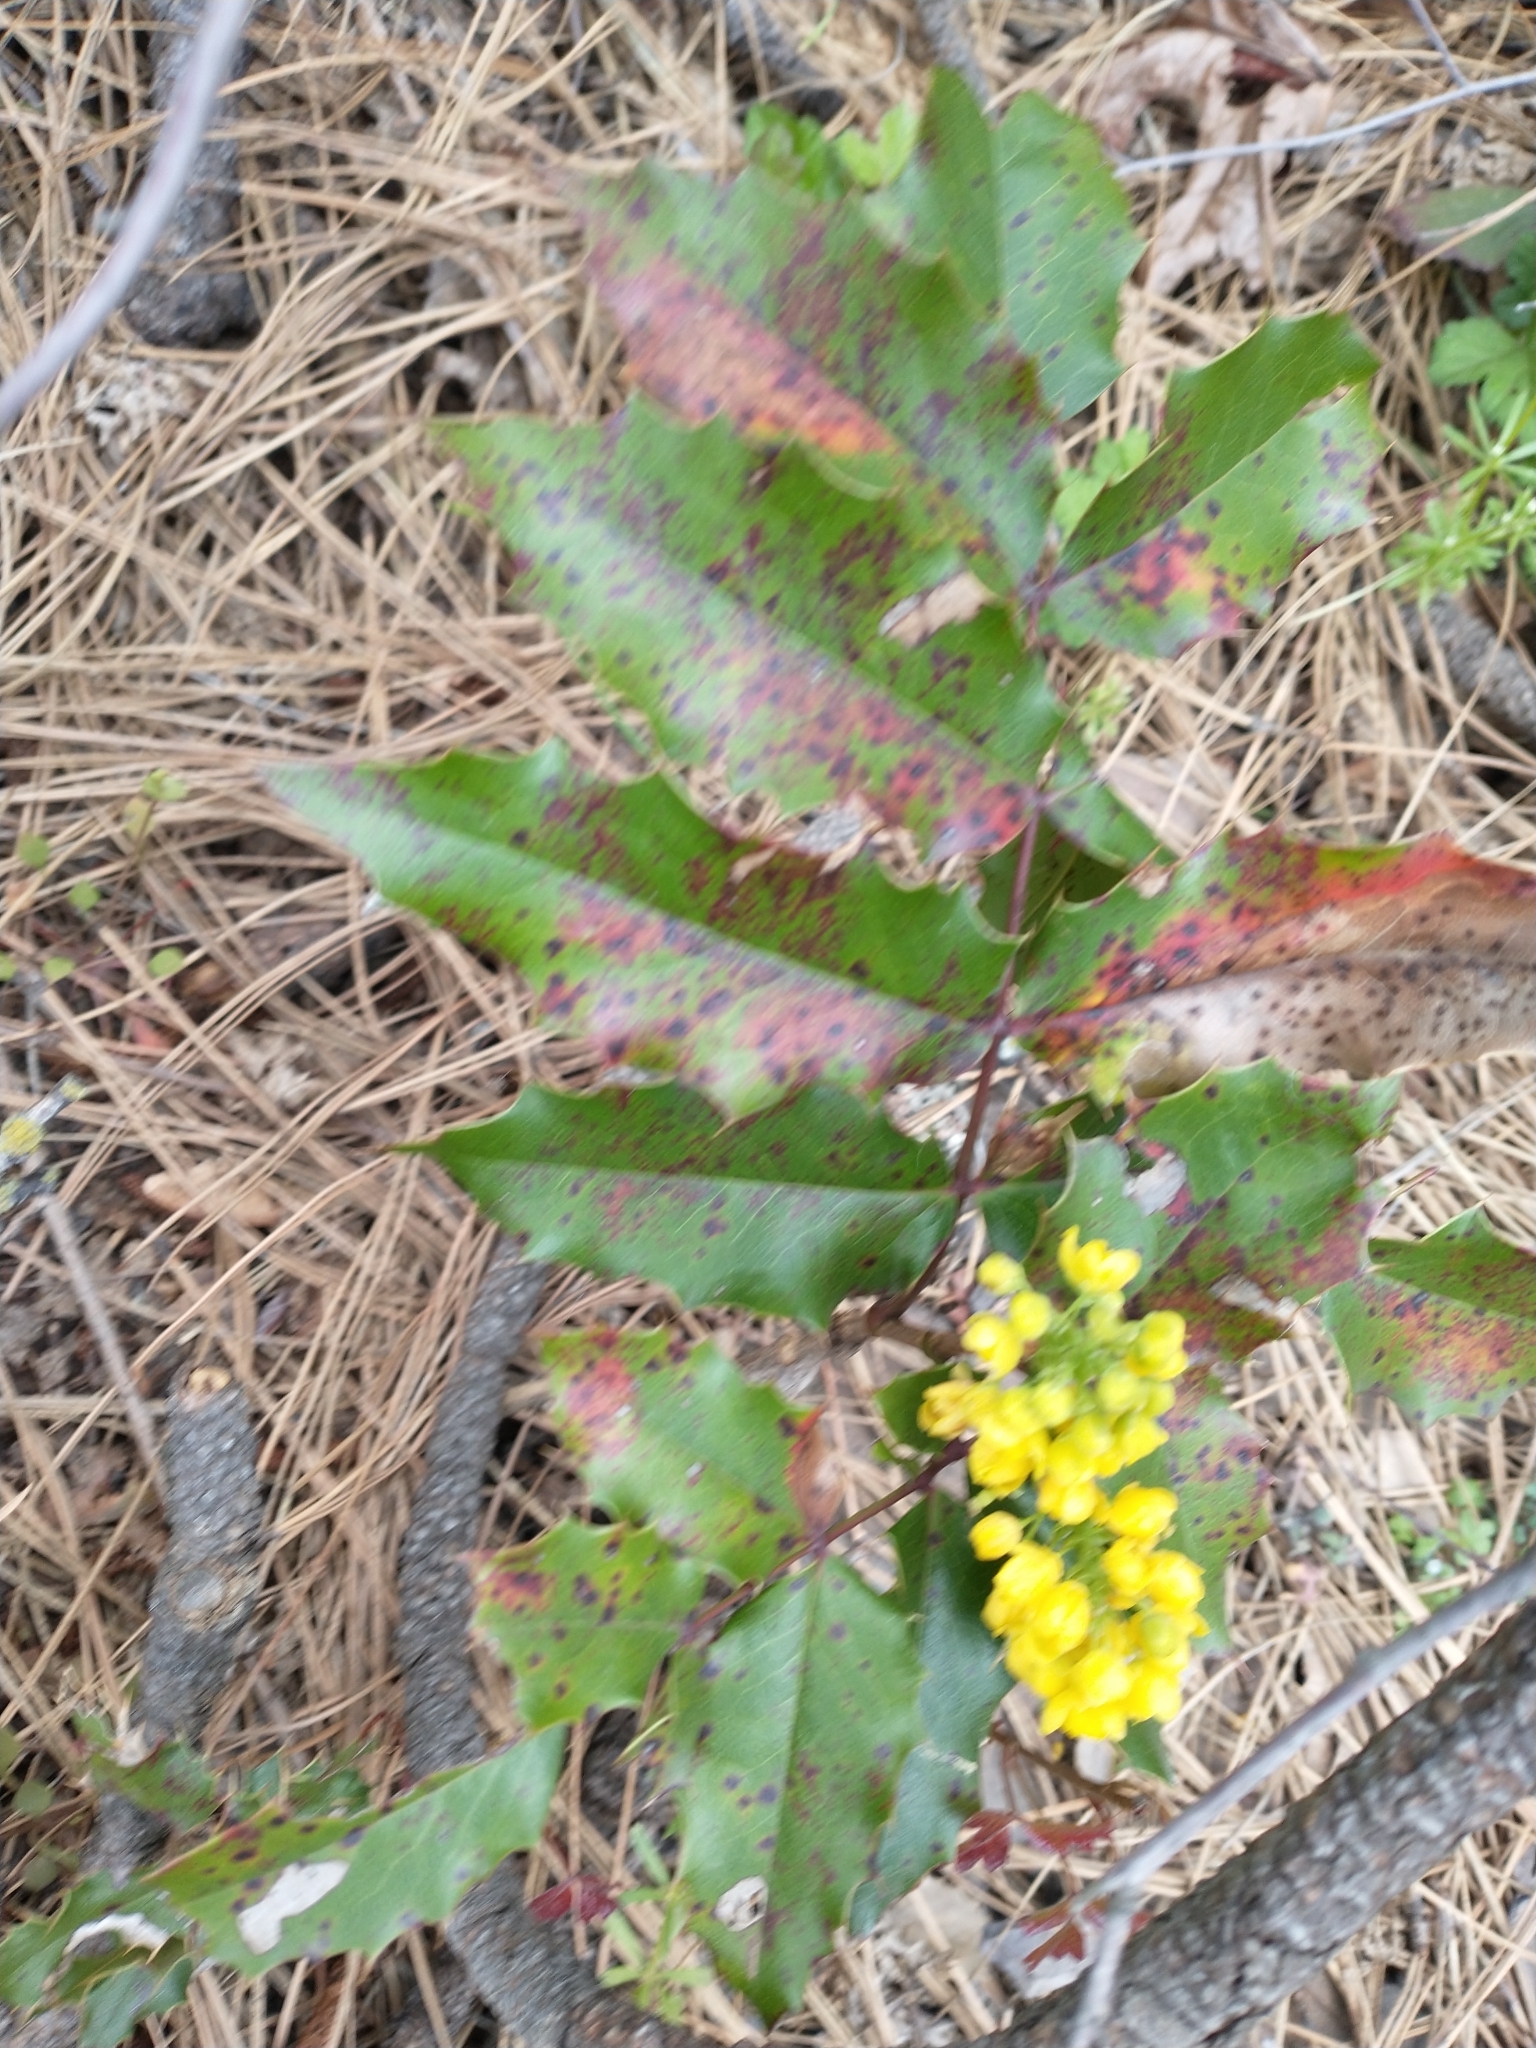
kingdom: Plantae
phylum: Tracheophyta
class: Magnoliopsida
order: Ranunculales
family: Berberidaceae
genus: Mahonia
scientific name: Mahonia aquifolium
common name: Oregon-grape
